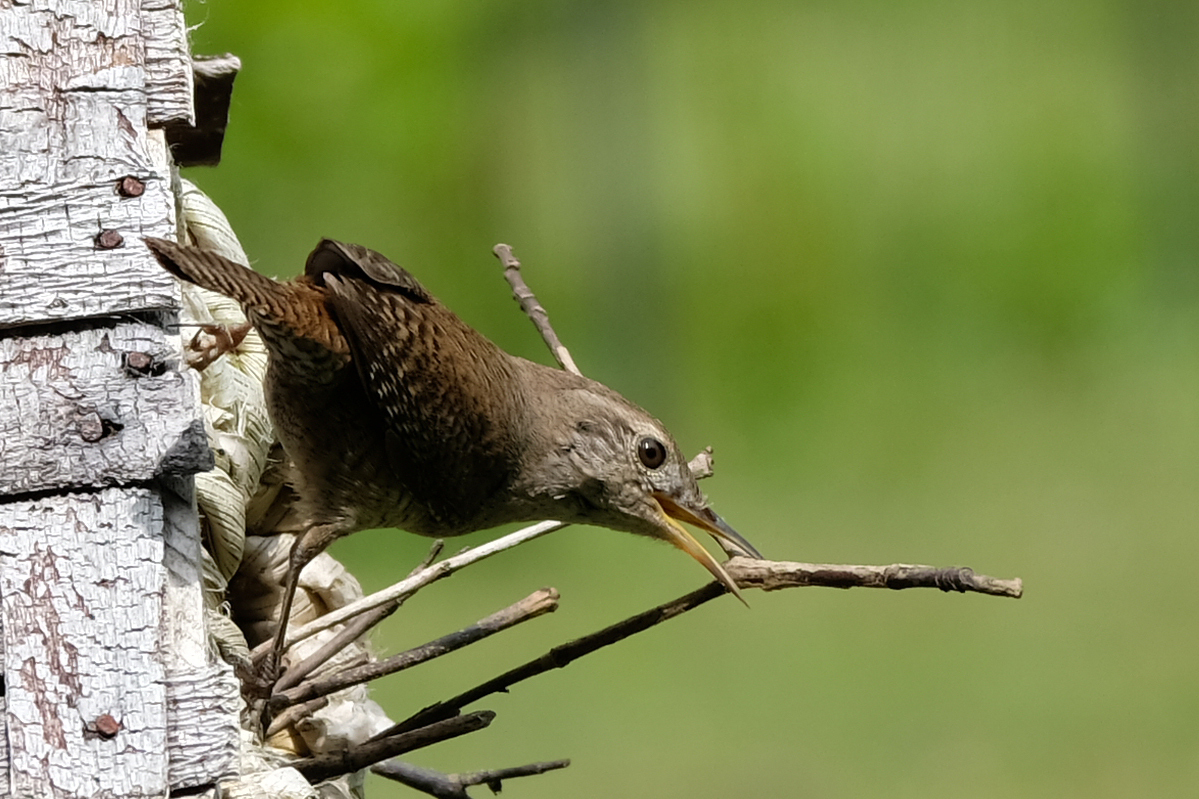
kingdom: Animalia
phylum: Chordata
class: Aves
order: Passeriformes
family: Troglodytidae
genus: Troglodytes
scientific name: Troglodytes aedon
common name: House wren
